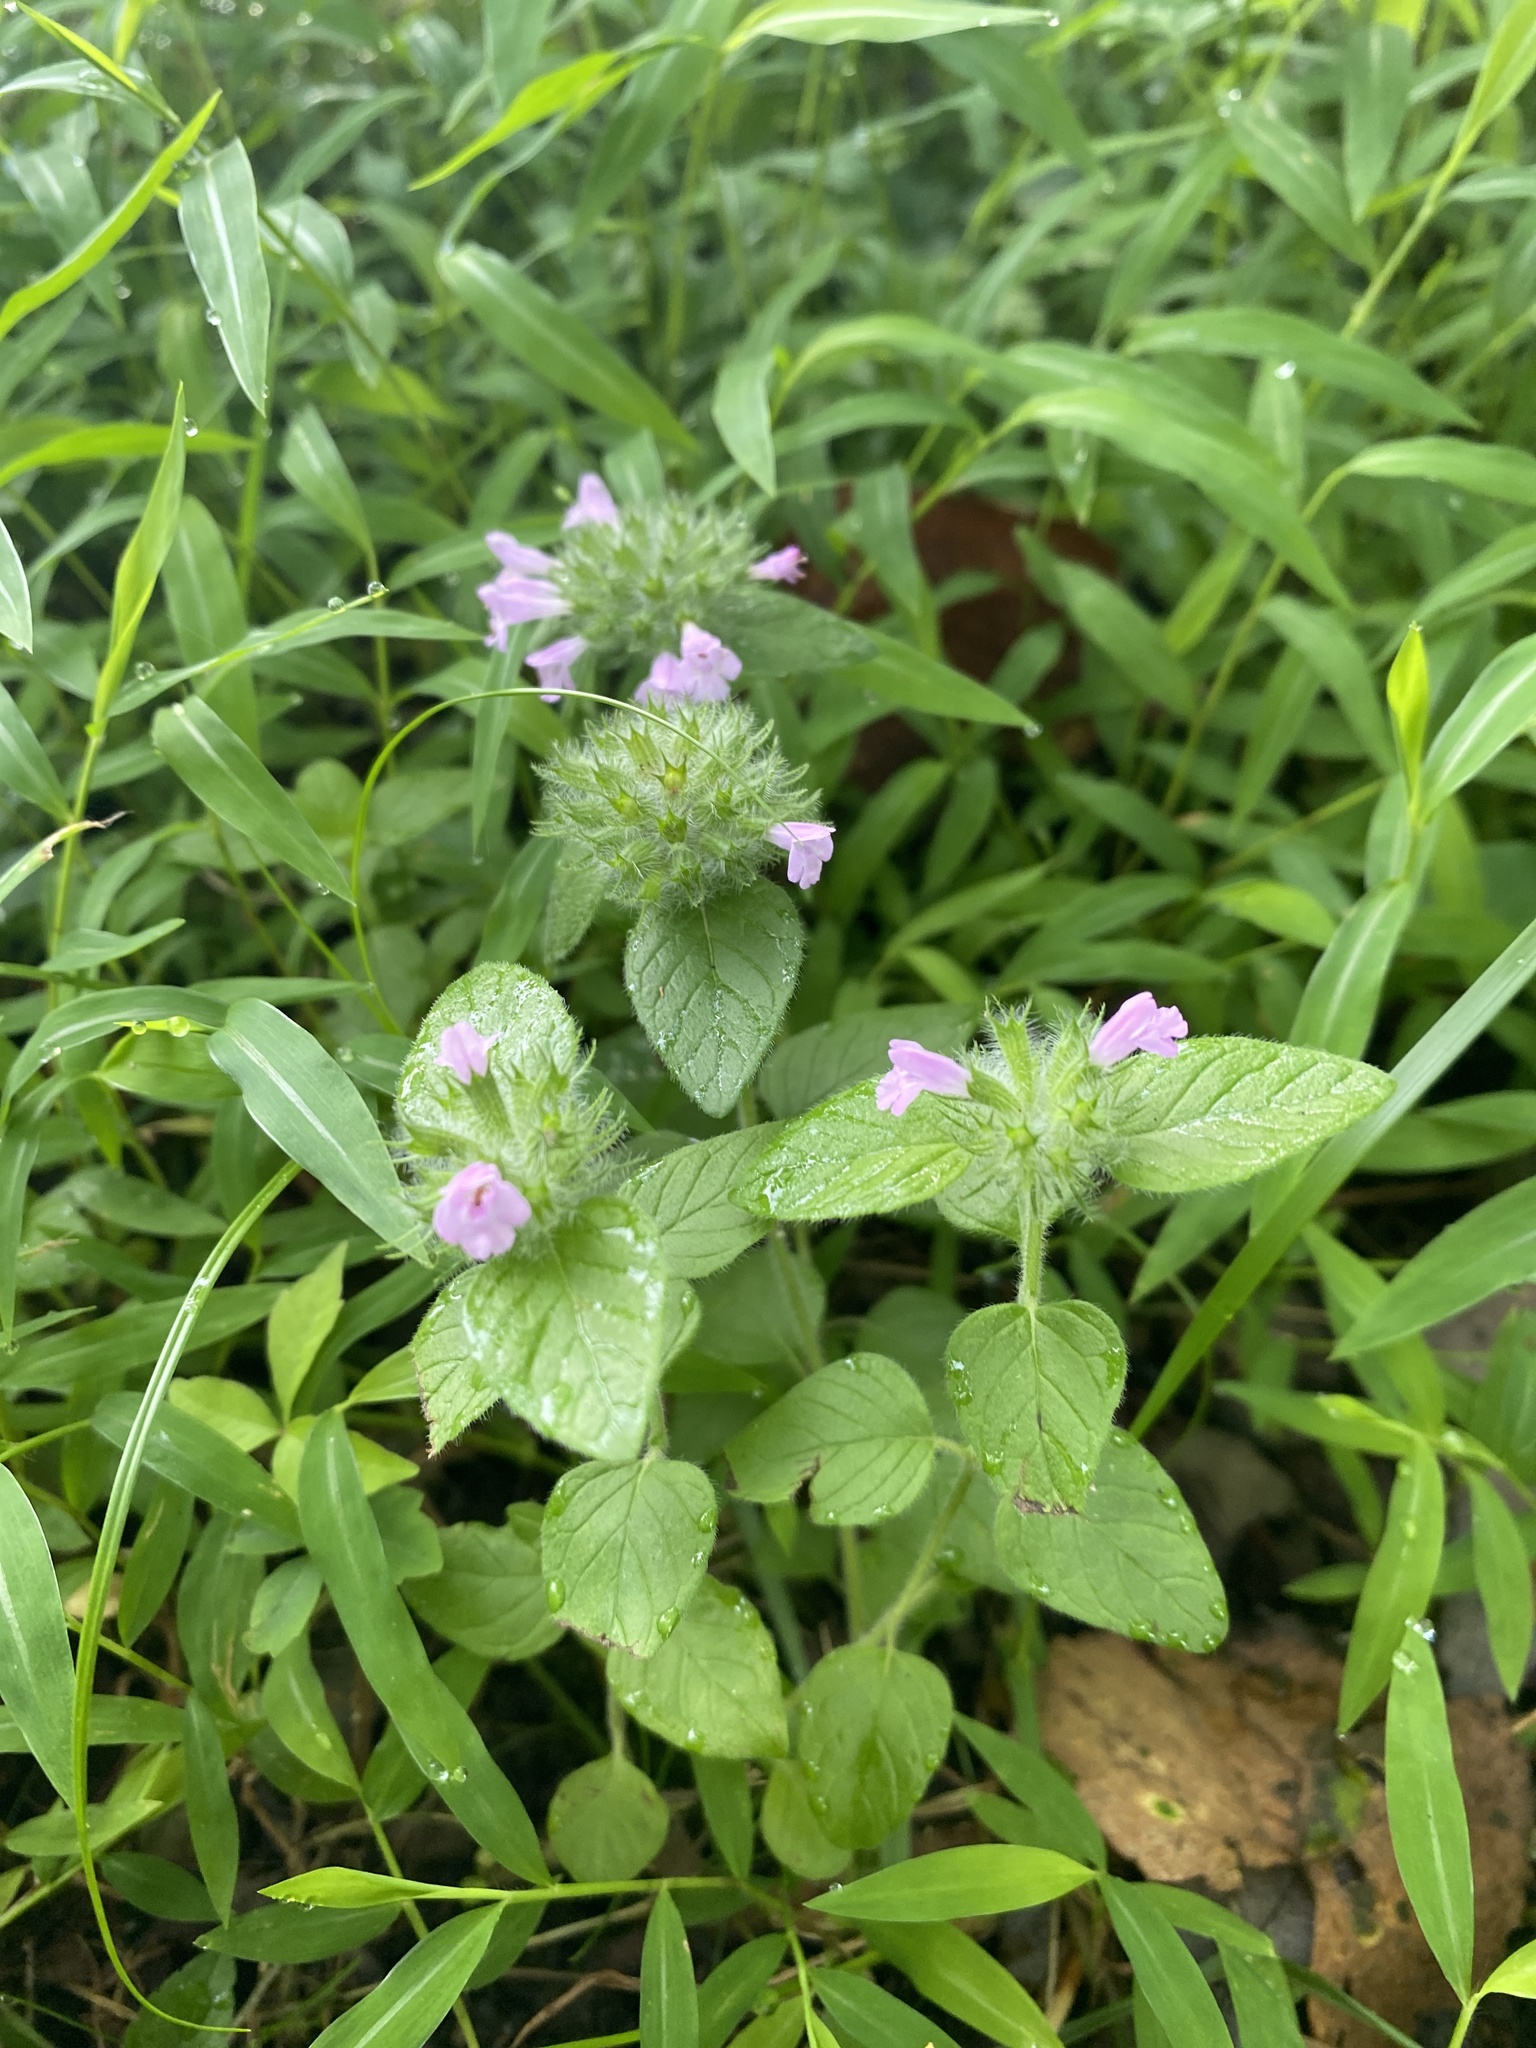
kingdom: Plantae
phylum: Tracheophyta
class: Magnoliopsida
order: Lamiales
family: Lamiaceae
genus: Clinopodium
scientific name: Clinopodium vulgare
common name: Wild basil
